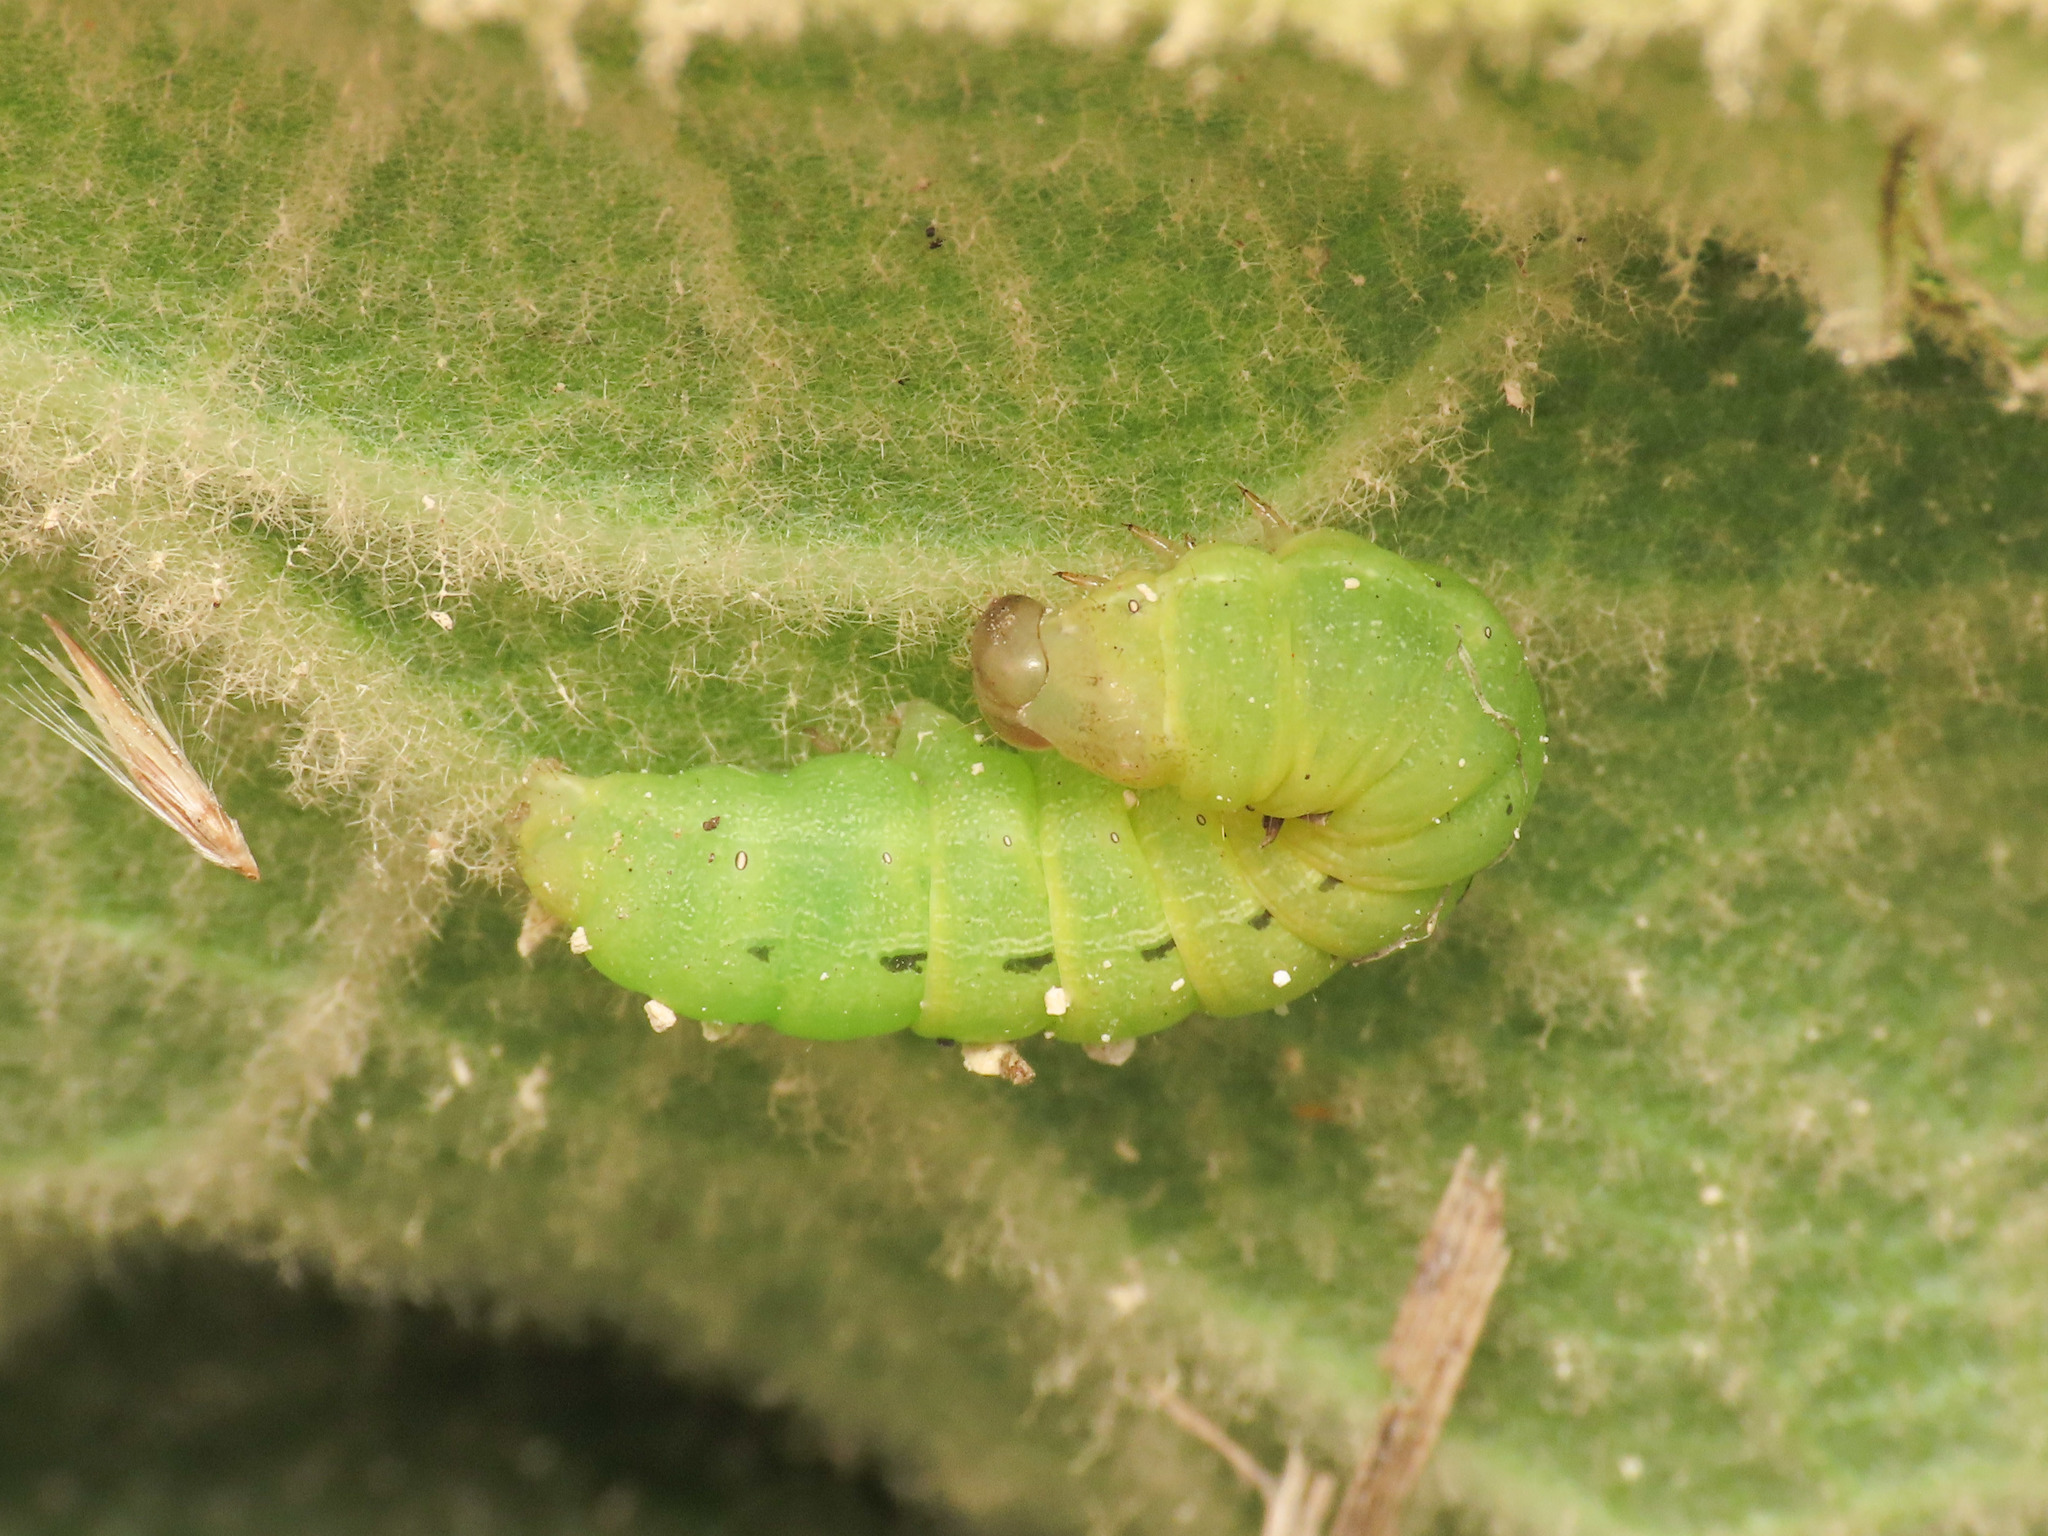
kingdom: Animalia
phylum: Arthropoda
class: Insecta
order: Lepidoptera
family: Noctuidae
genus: Noctua
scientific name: Noctua pronuba
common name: Large yellow underwing
